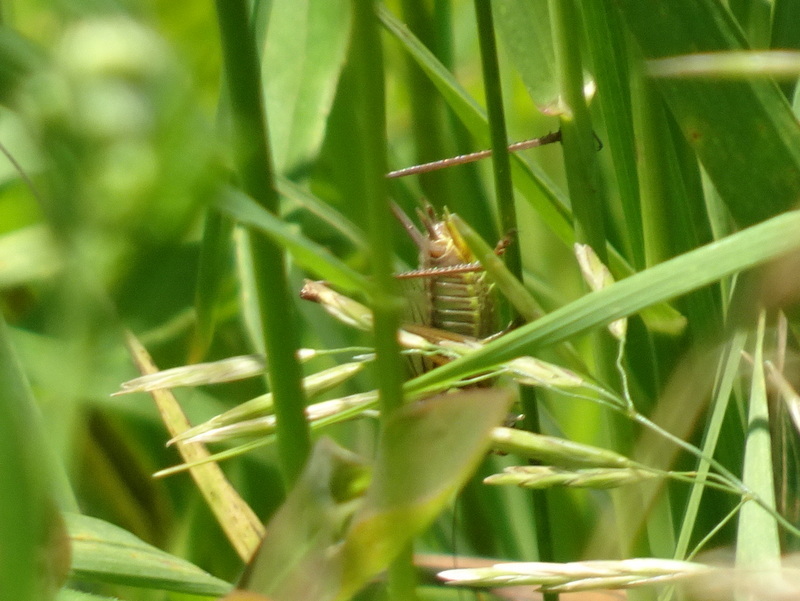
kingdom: Animalia
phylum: Arthropoda
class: Insecta
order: Orthoptera
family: Tettigoniidae
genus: Roeseliana
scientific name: Roeseliana roeselii
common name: Roesel's bush cricket
